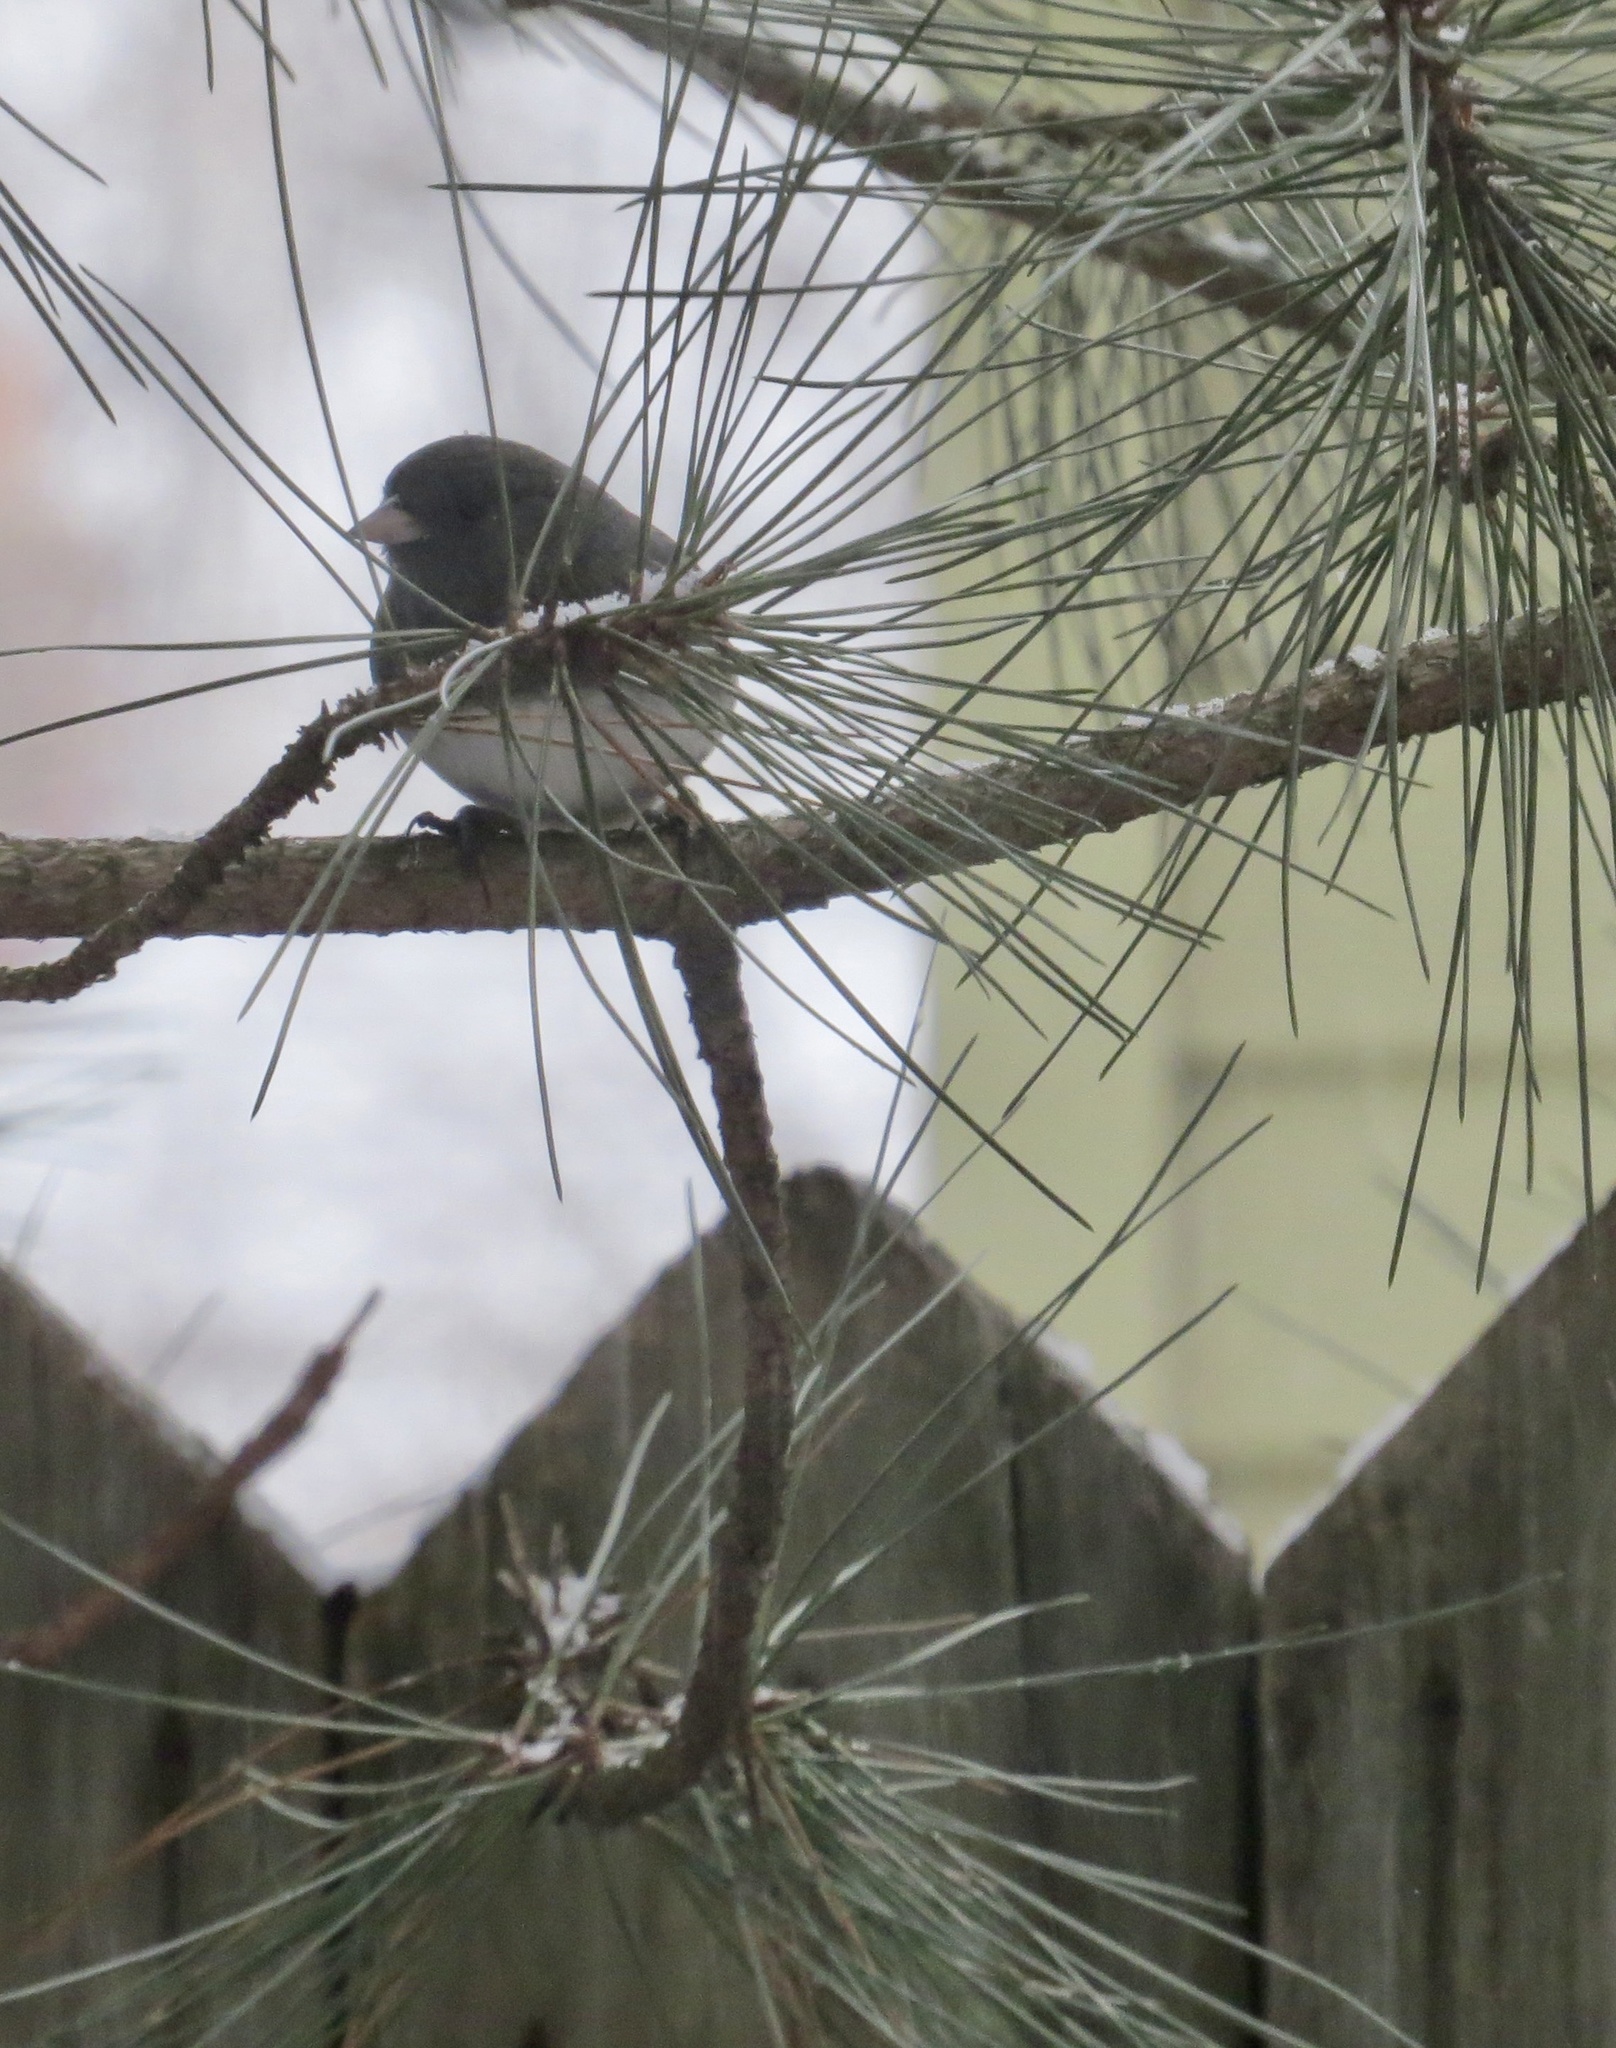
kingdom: Animalia
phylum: Chordata
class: Aves
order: Passeriformes
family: Passerellidae
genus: Junco
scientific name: Junco hyemalis
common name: Dark-eyed junco
